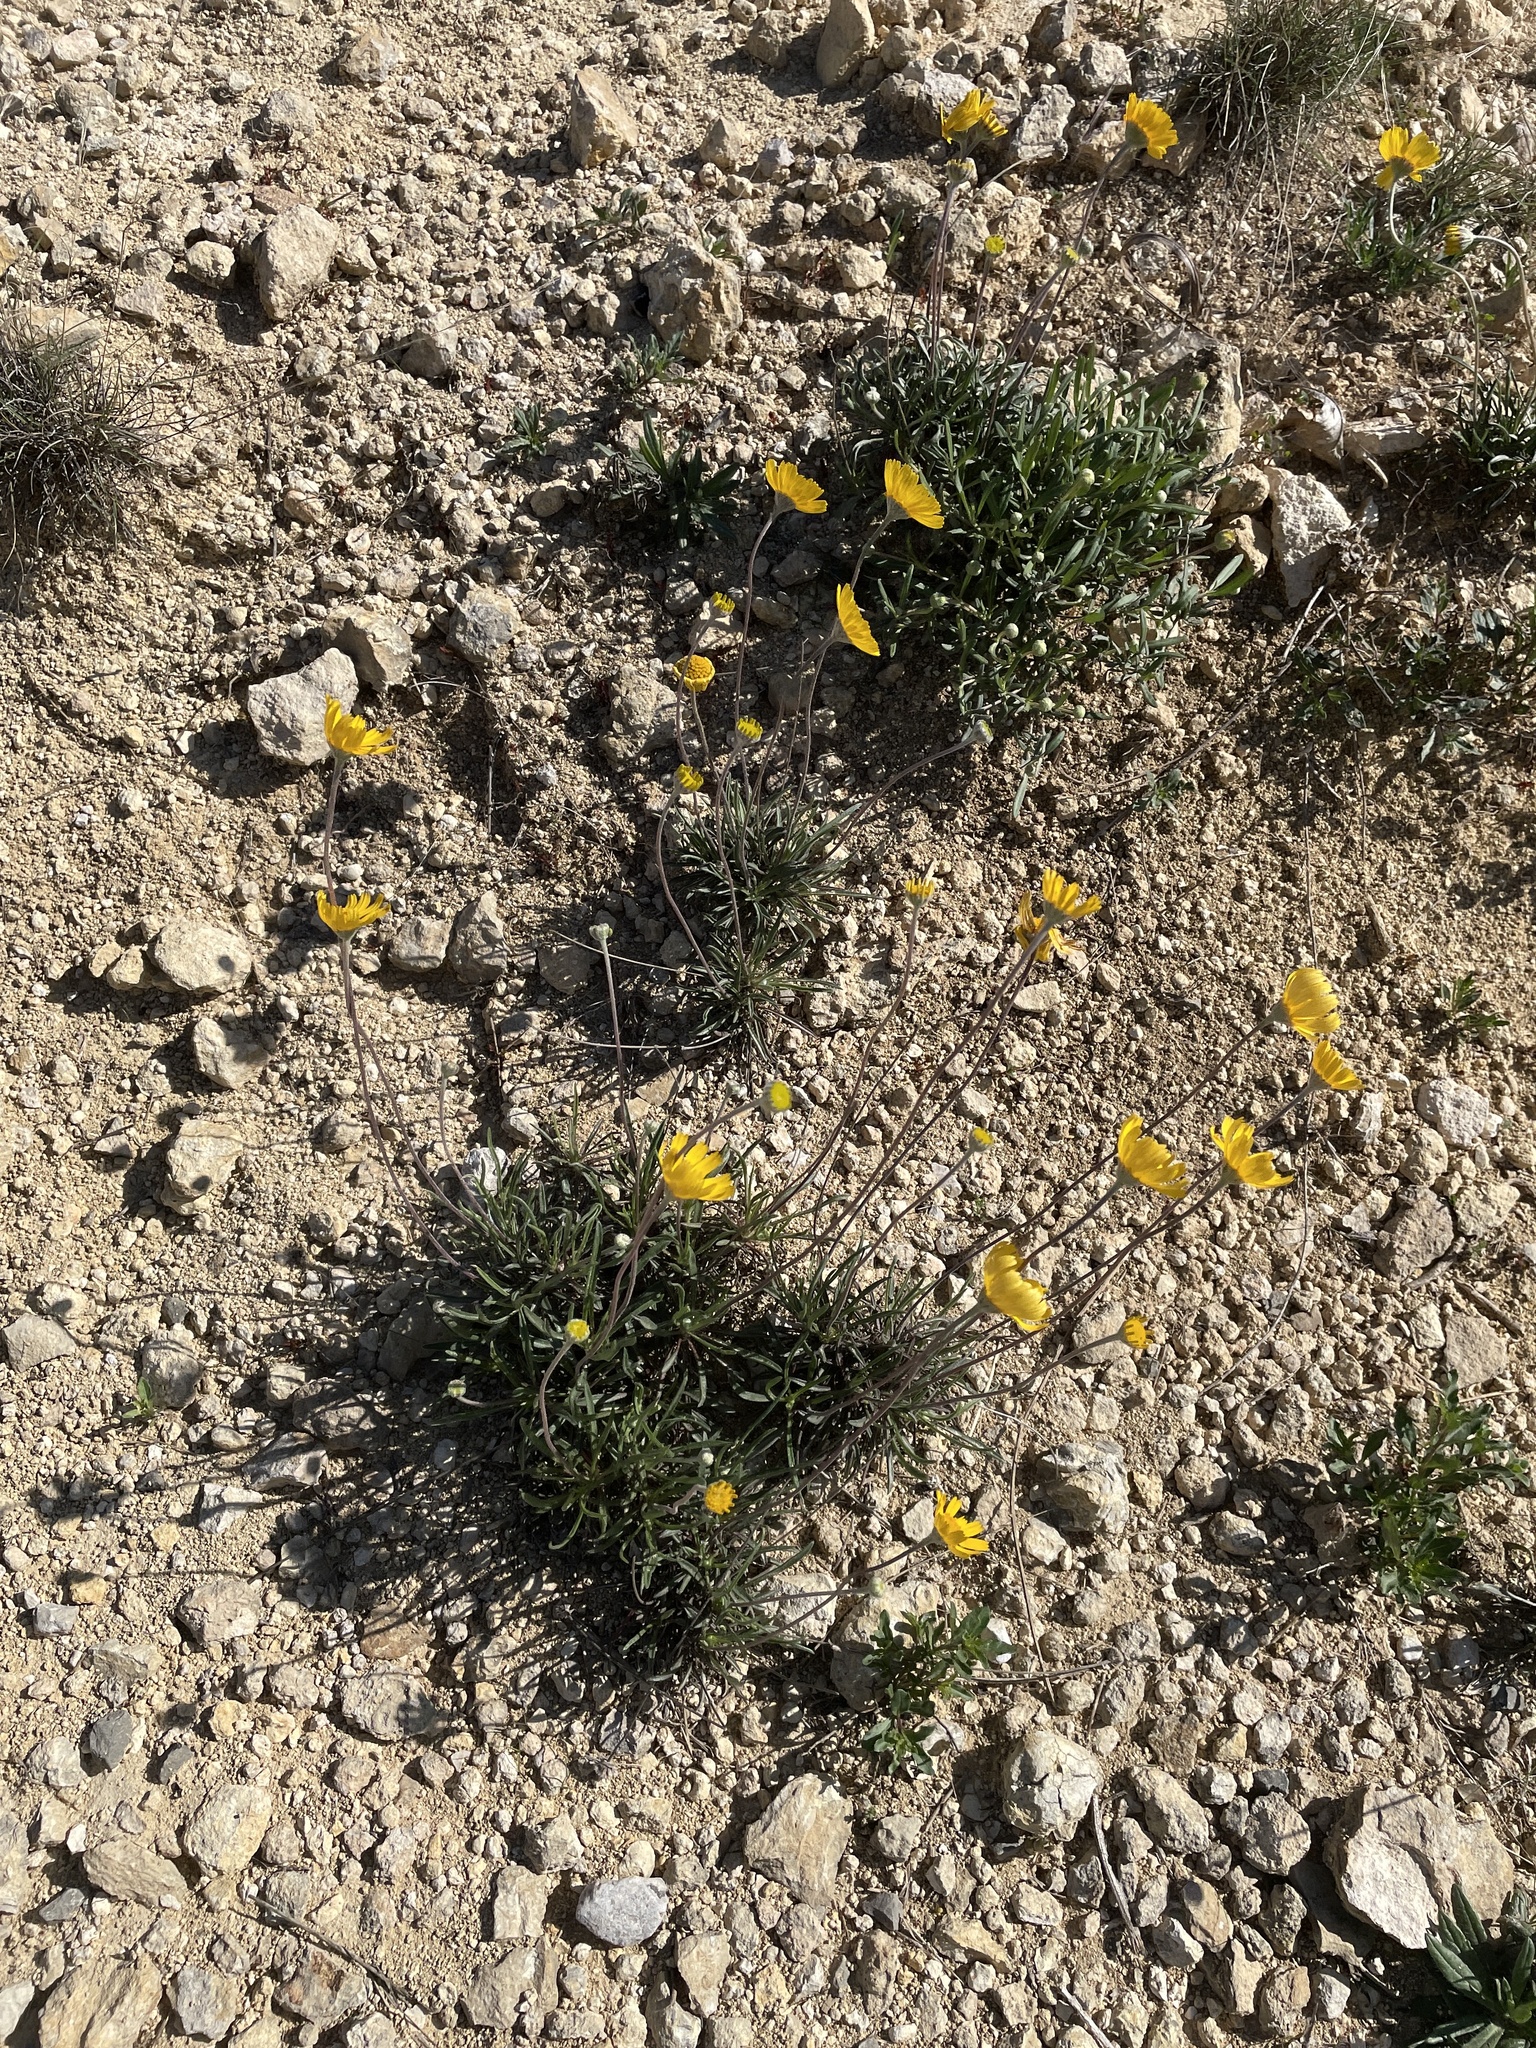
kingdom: Plantae
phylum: Tracheophyta
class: Magnoliopsida
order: Asterales
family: Asteraceae
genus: Tetraneuris
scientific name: Tetraneuris scaposa
